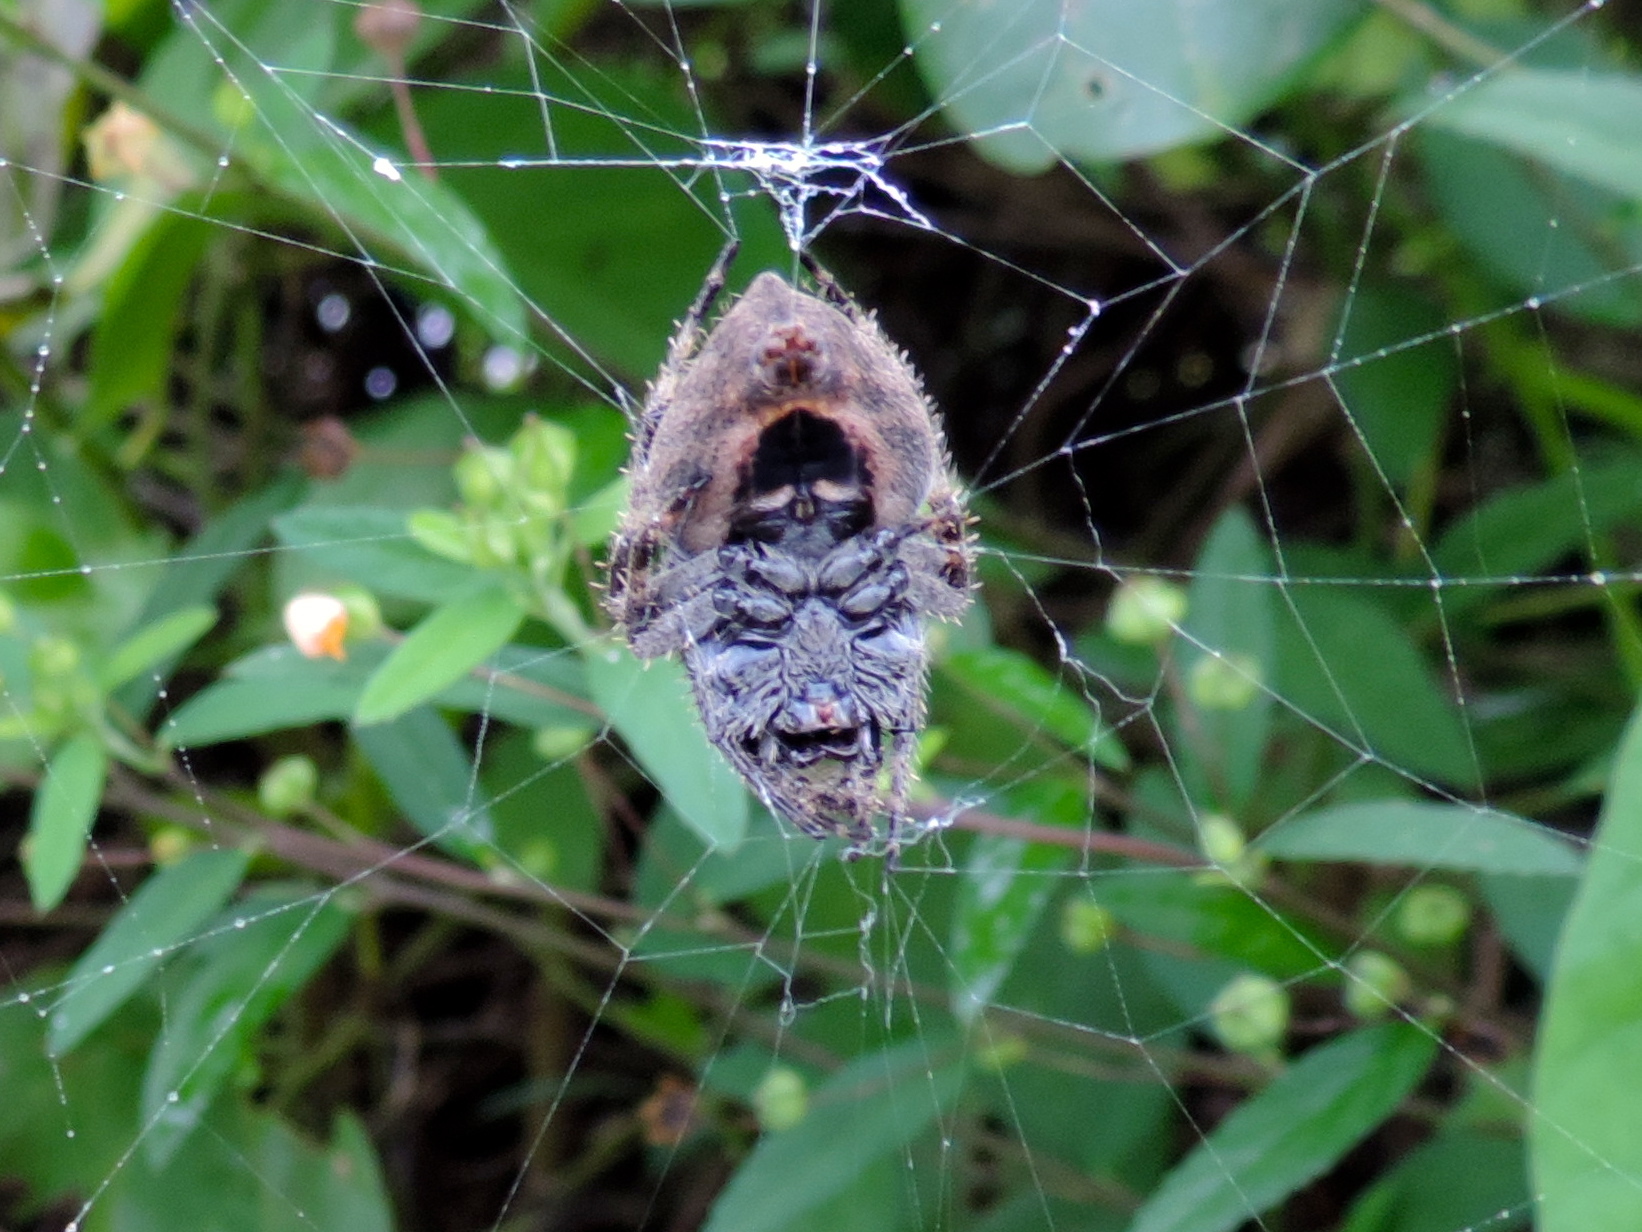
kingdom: Animalia
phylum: Arthropoda
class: Arachnida
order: Araneae
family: Araneidae
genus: Eriophora
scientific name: Eriophora
